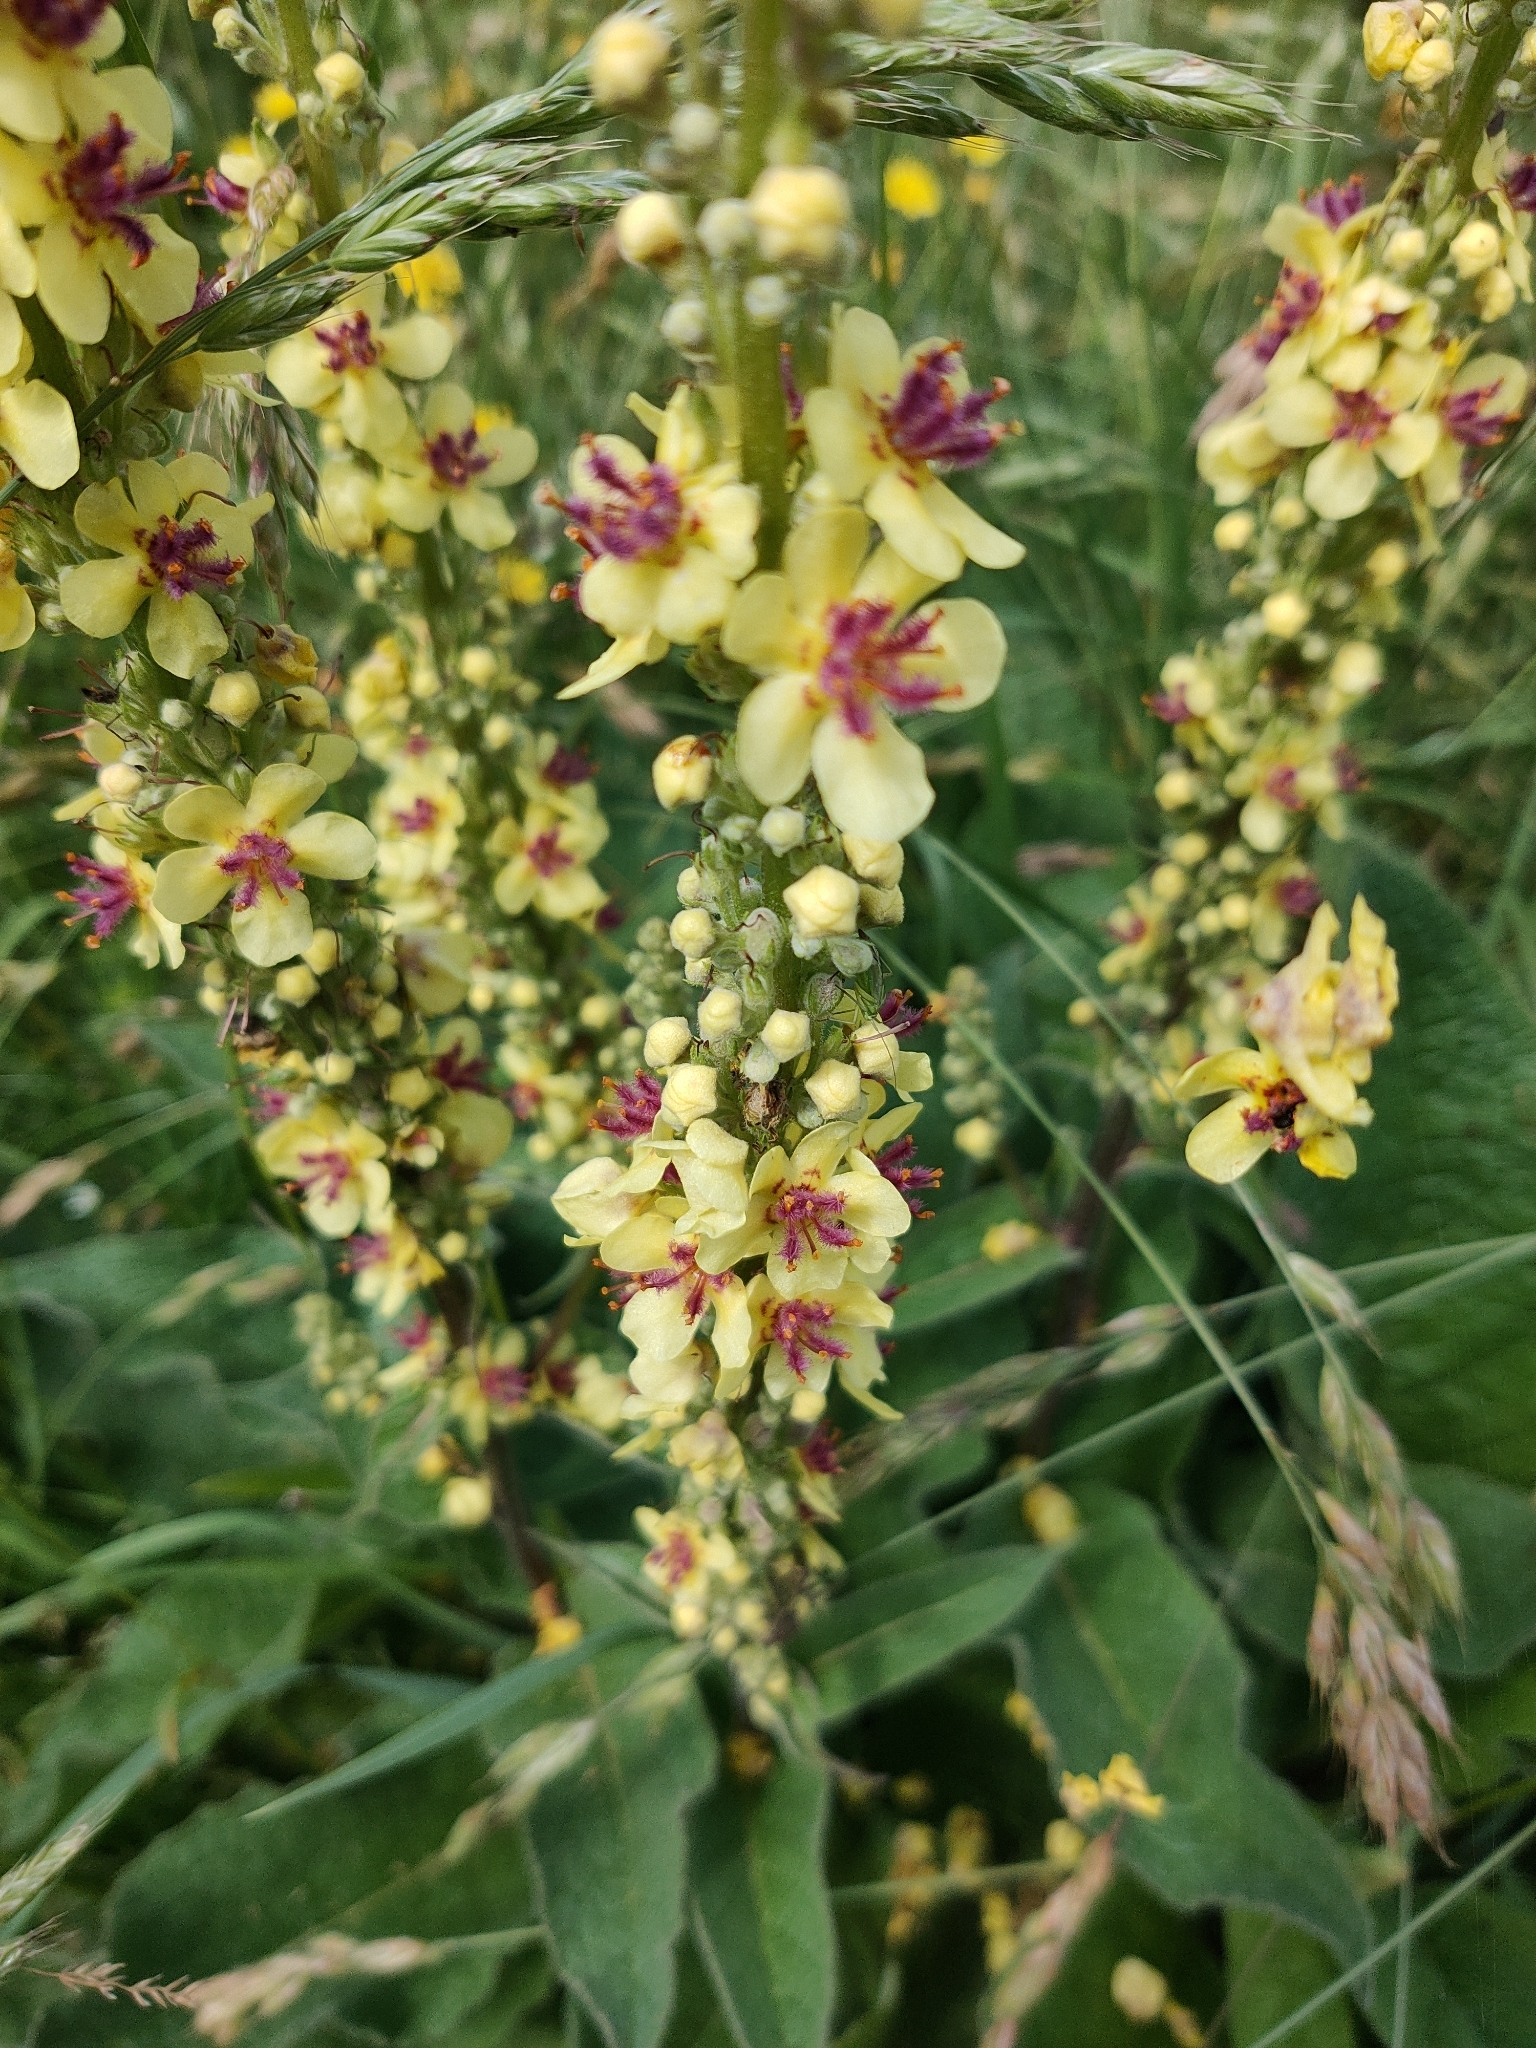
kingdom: Plantae
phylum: Tracheophyta
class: Magnoliopsida
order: Lamiales
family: Scrophulariaceae
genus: Verbascum
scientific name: Verbascum nigrum
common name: Dark mullein
